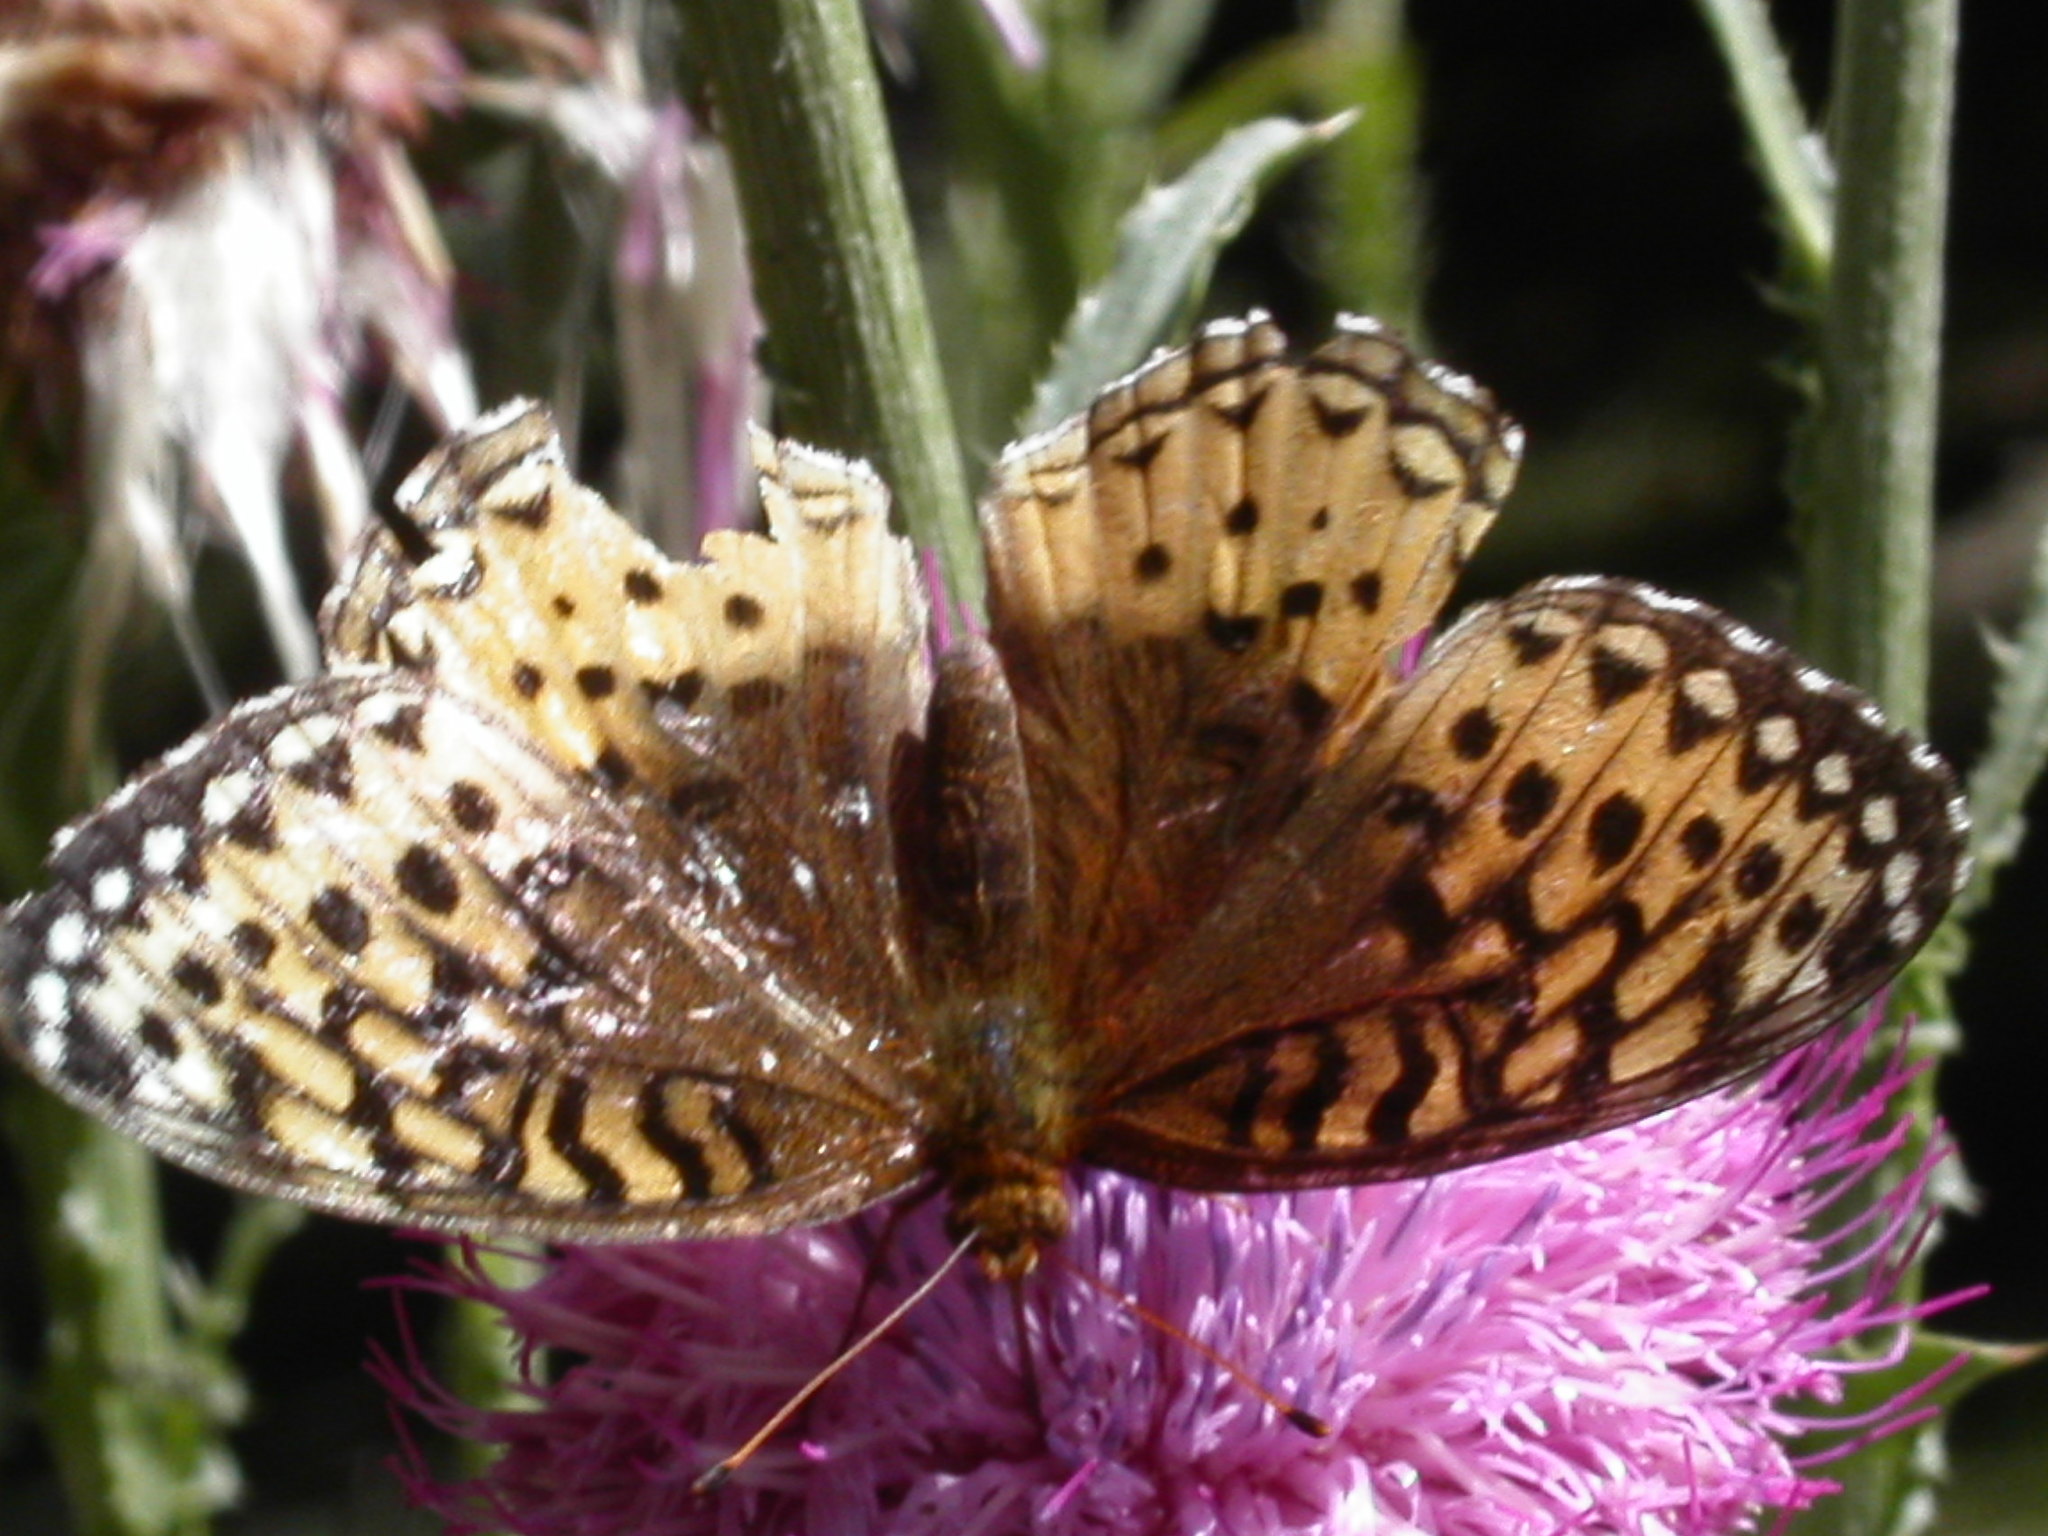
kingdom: Animalia
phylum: Arthropoda
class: Insecta
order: Lepidoptera
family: Nymphalidae
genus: Speyeria
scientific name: Speyeria cybele
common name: Great spangled fritillary
